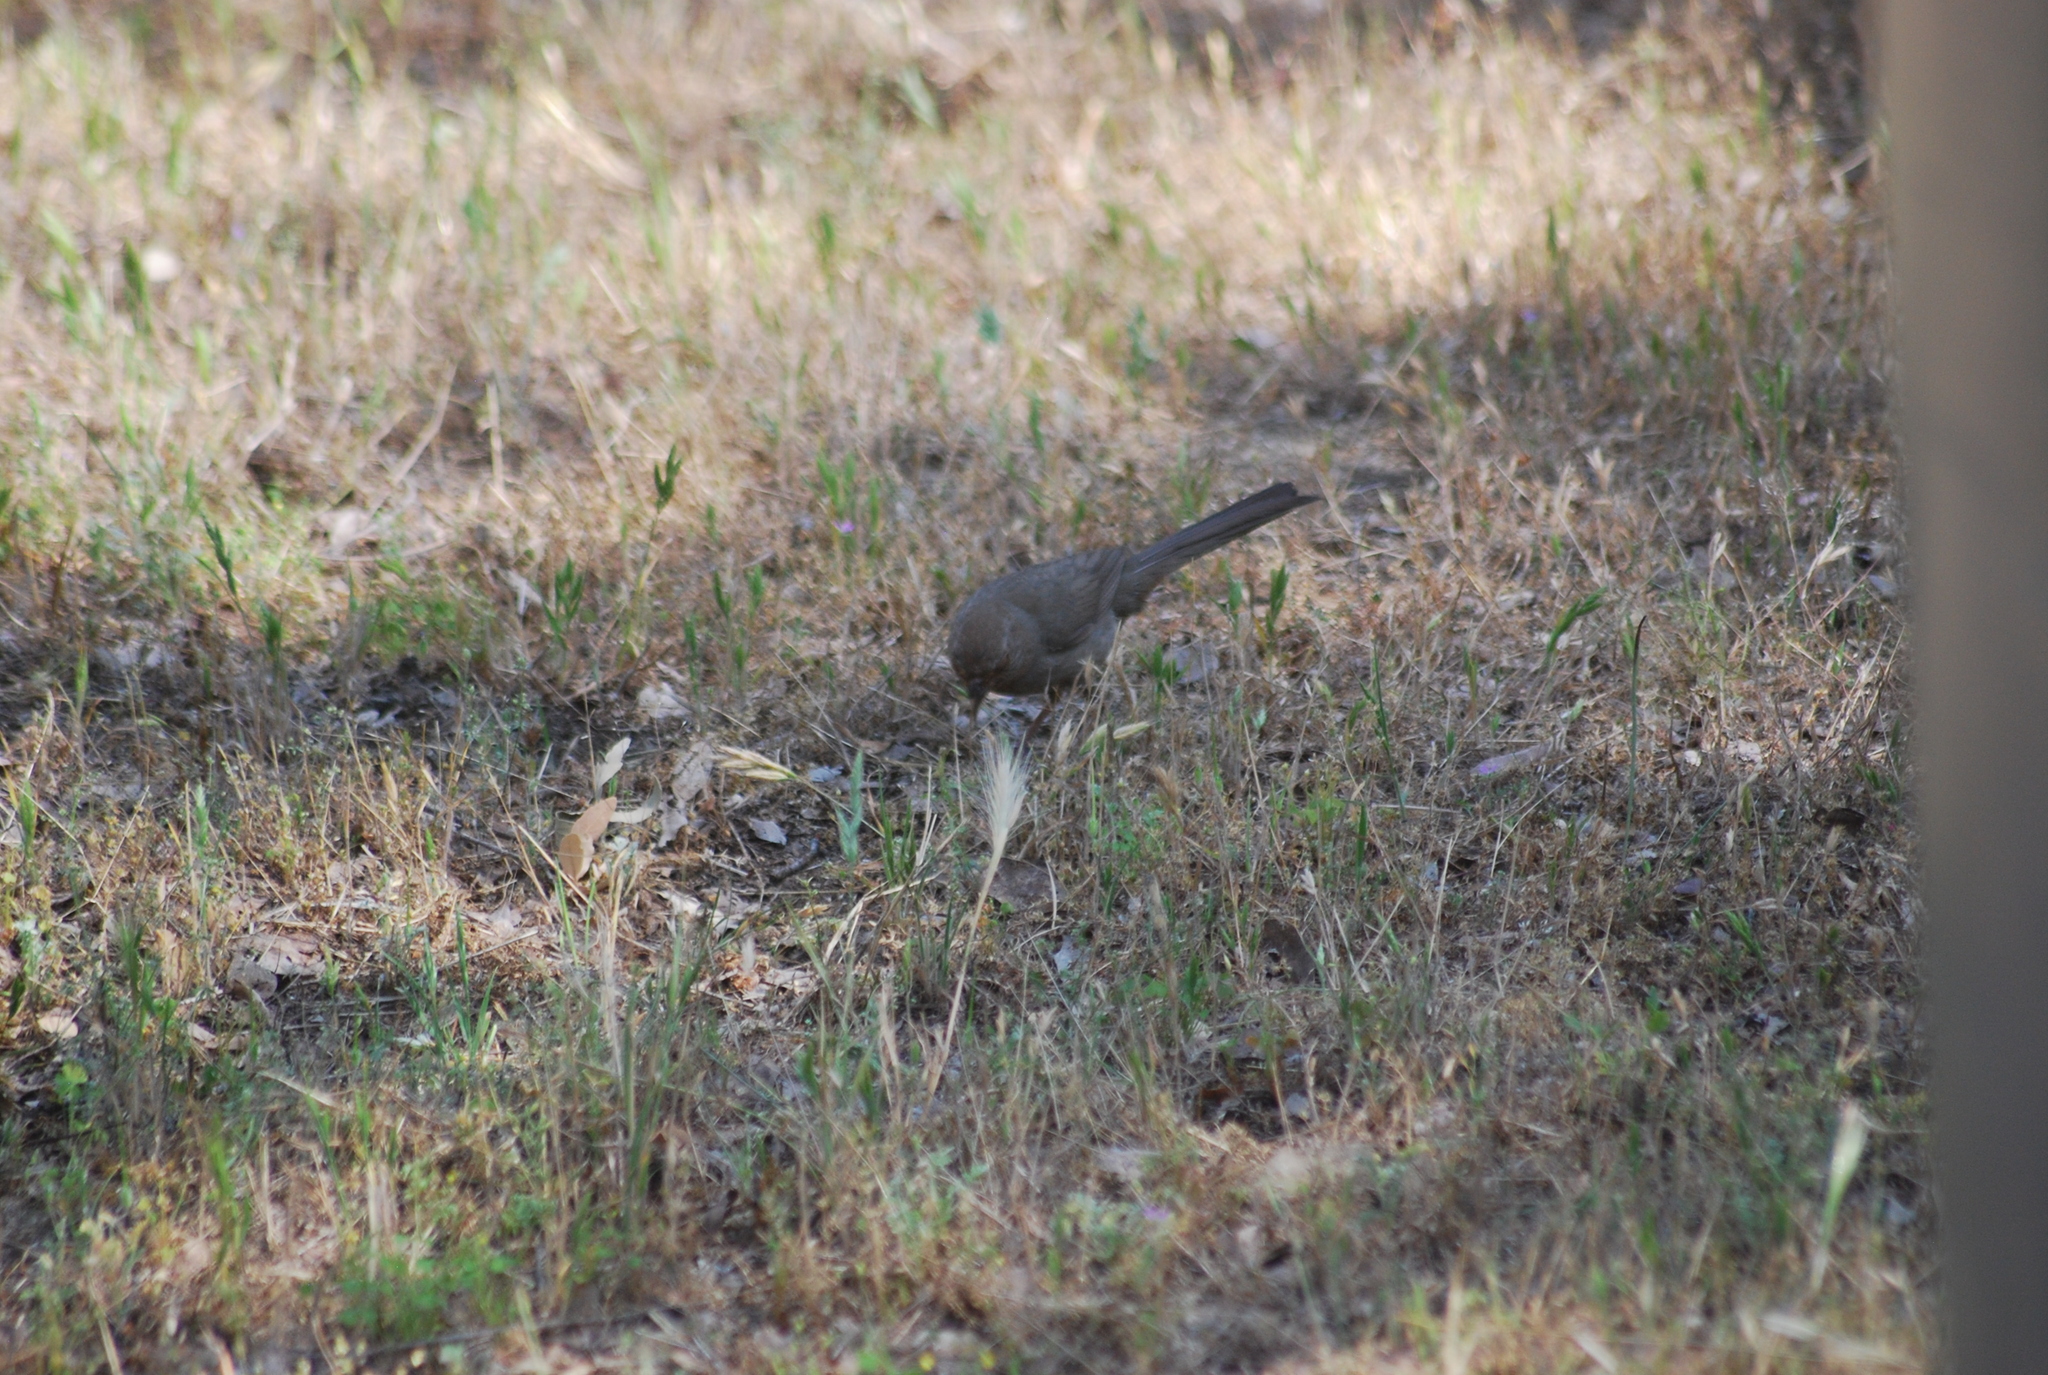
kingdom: Animalia
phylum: Chordata
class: Aves
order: Passeriformes
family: Passerellidae
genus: Melozone
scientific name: Melozone crissalis
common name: California towhee
